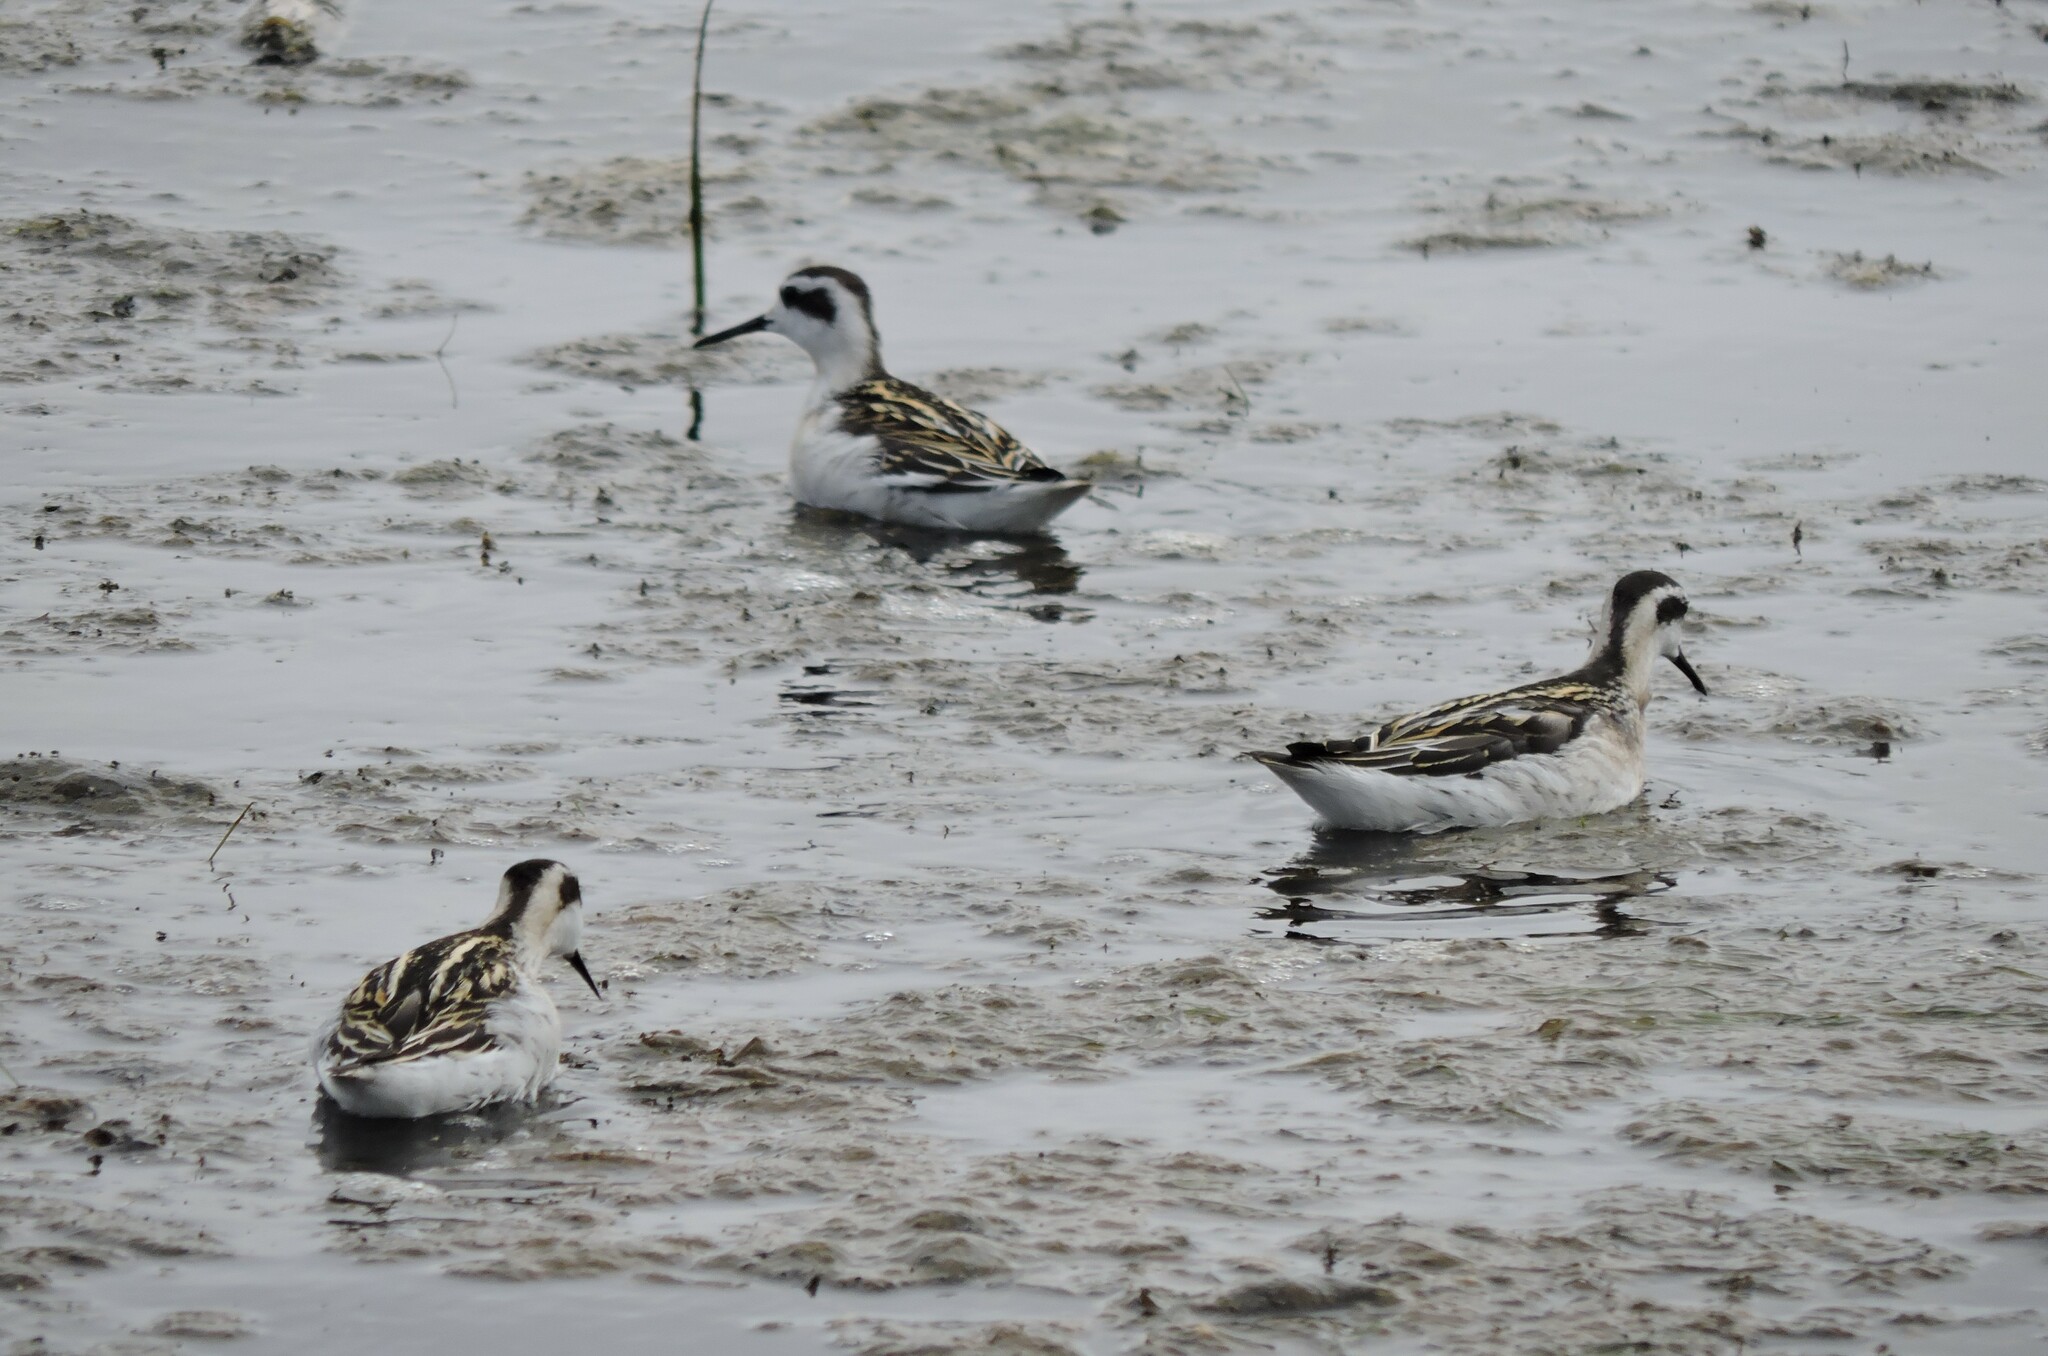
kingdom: Animalia
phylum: Chordata
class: Aves
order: Charadriiformes
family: Scolopacidae
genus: Phalaropus
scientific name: Phalaropus lobatus
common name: Red-necked phalarope
